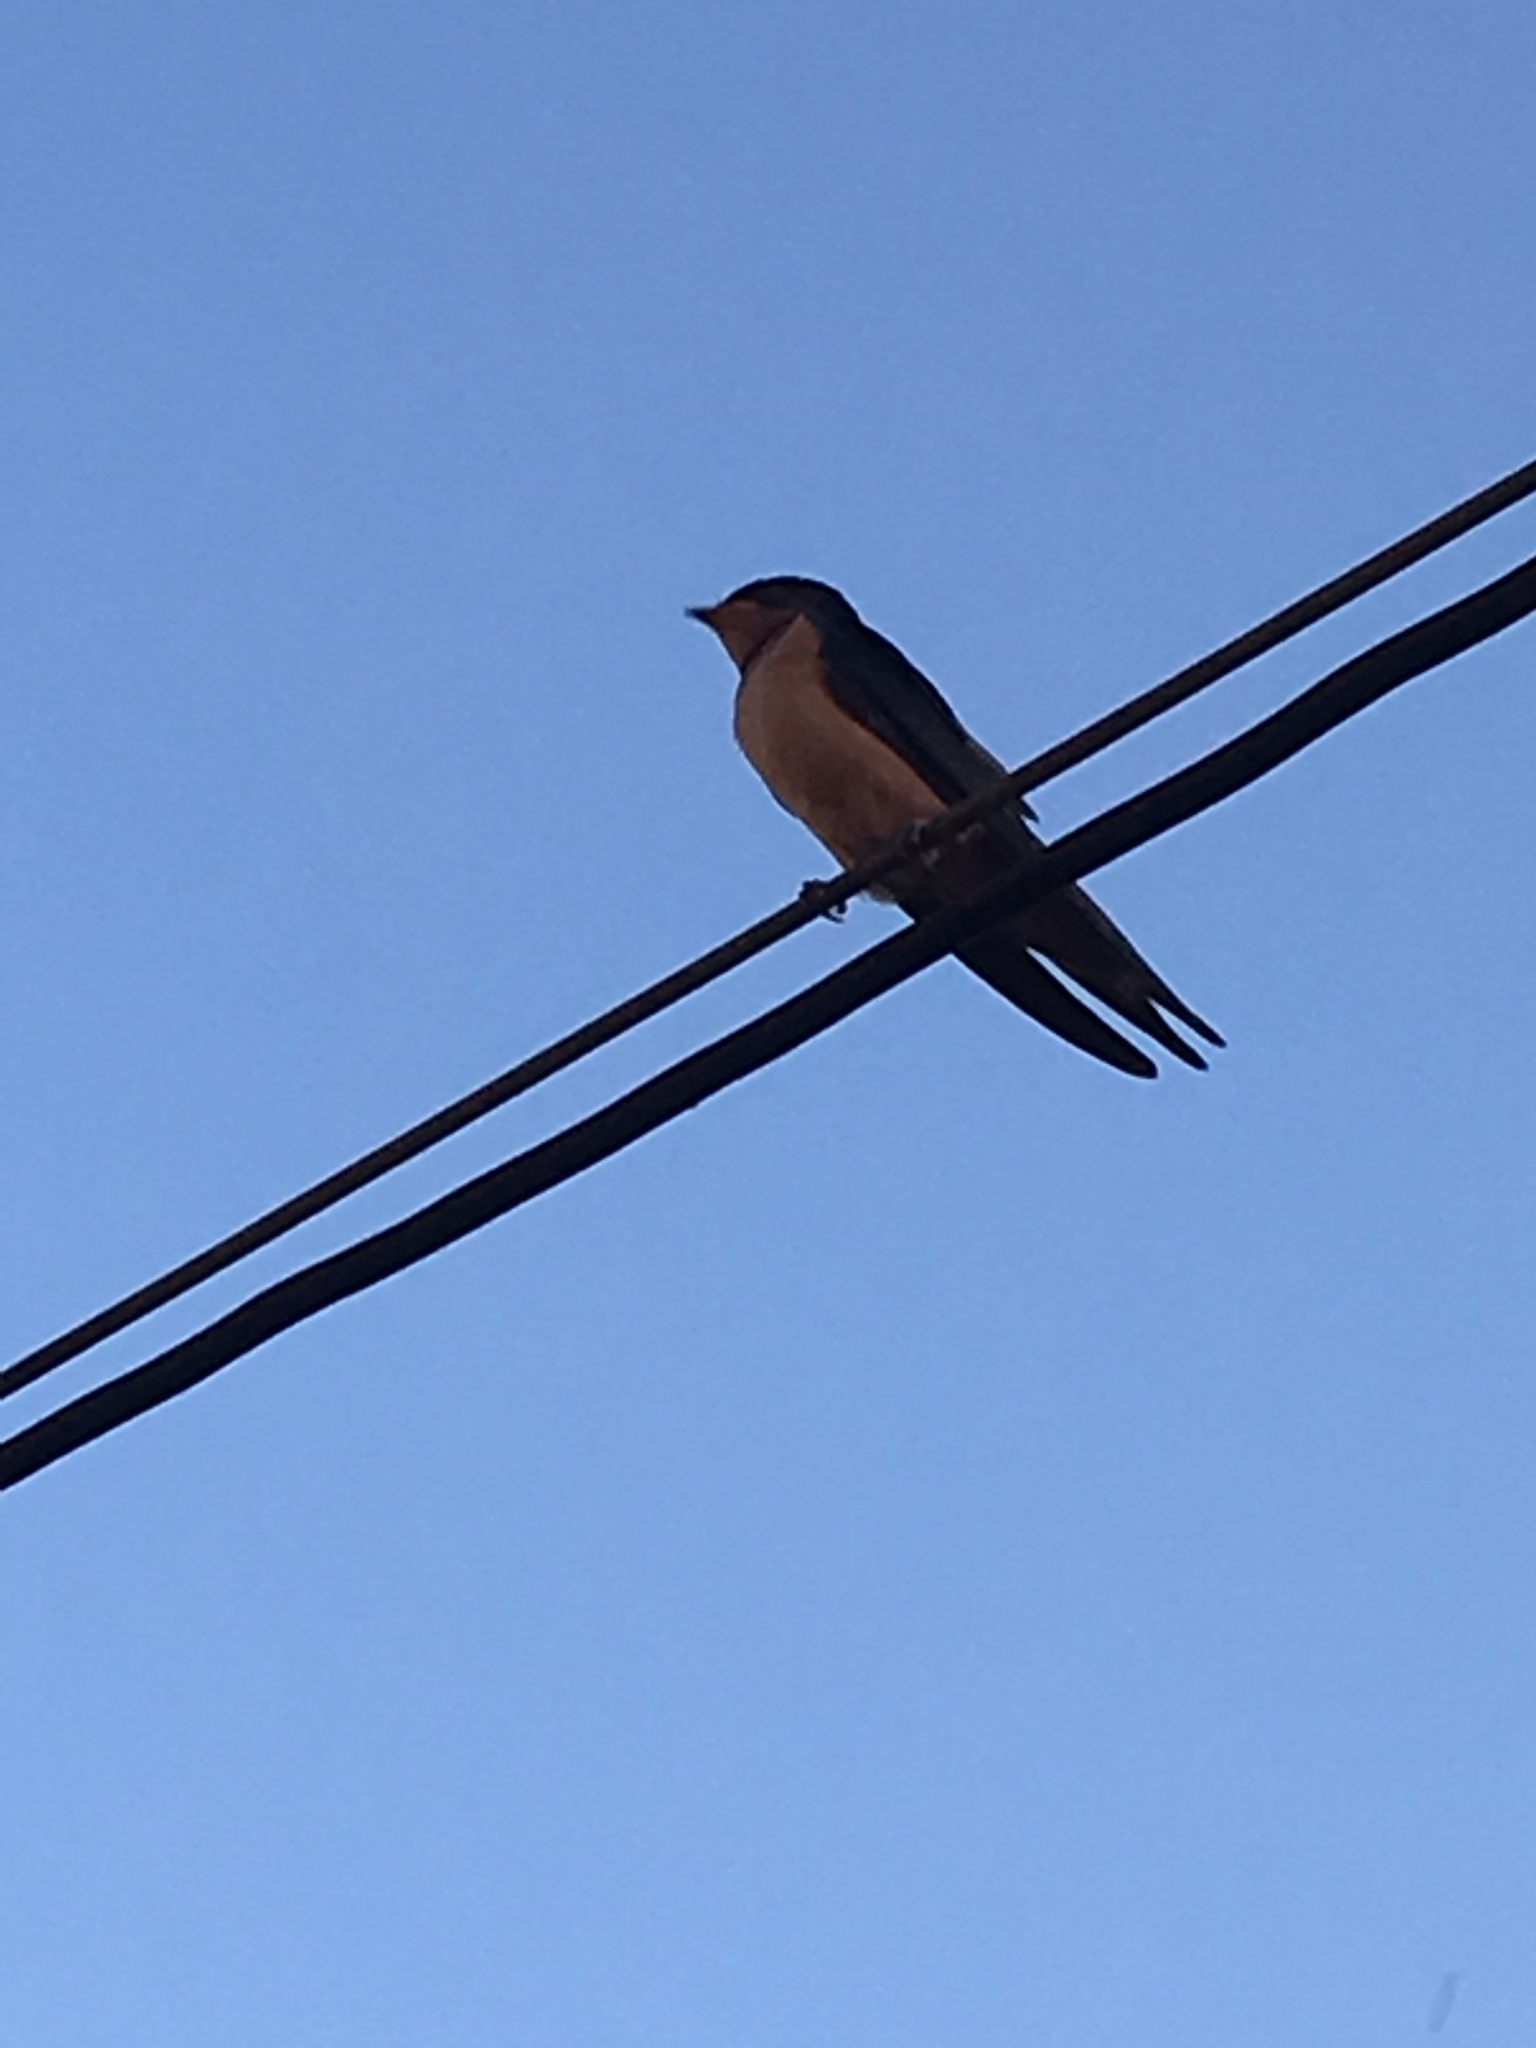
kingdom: Animalia
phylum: Chordata
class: Aves
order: Passeriformes
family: Hirundinidae
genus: Hirundo
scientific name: Hirundo rustica
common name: Barn swallow
